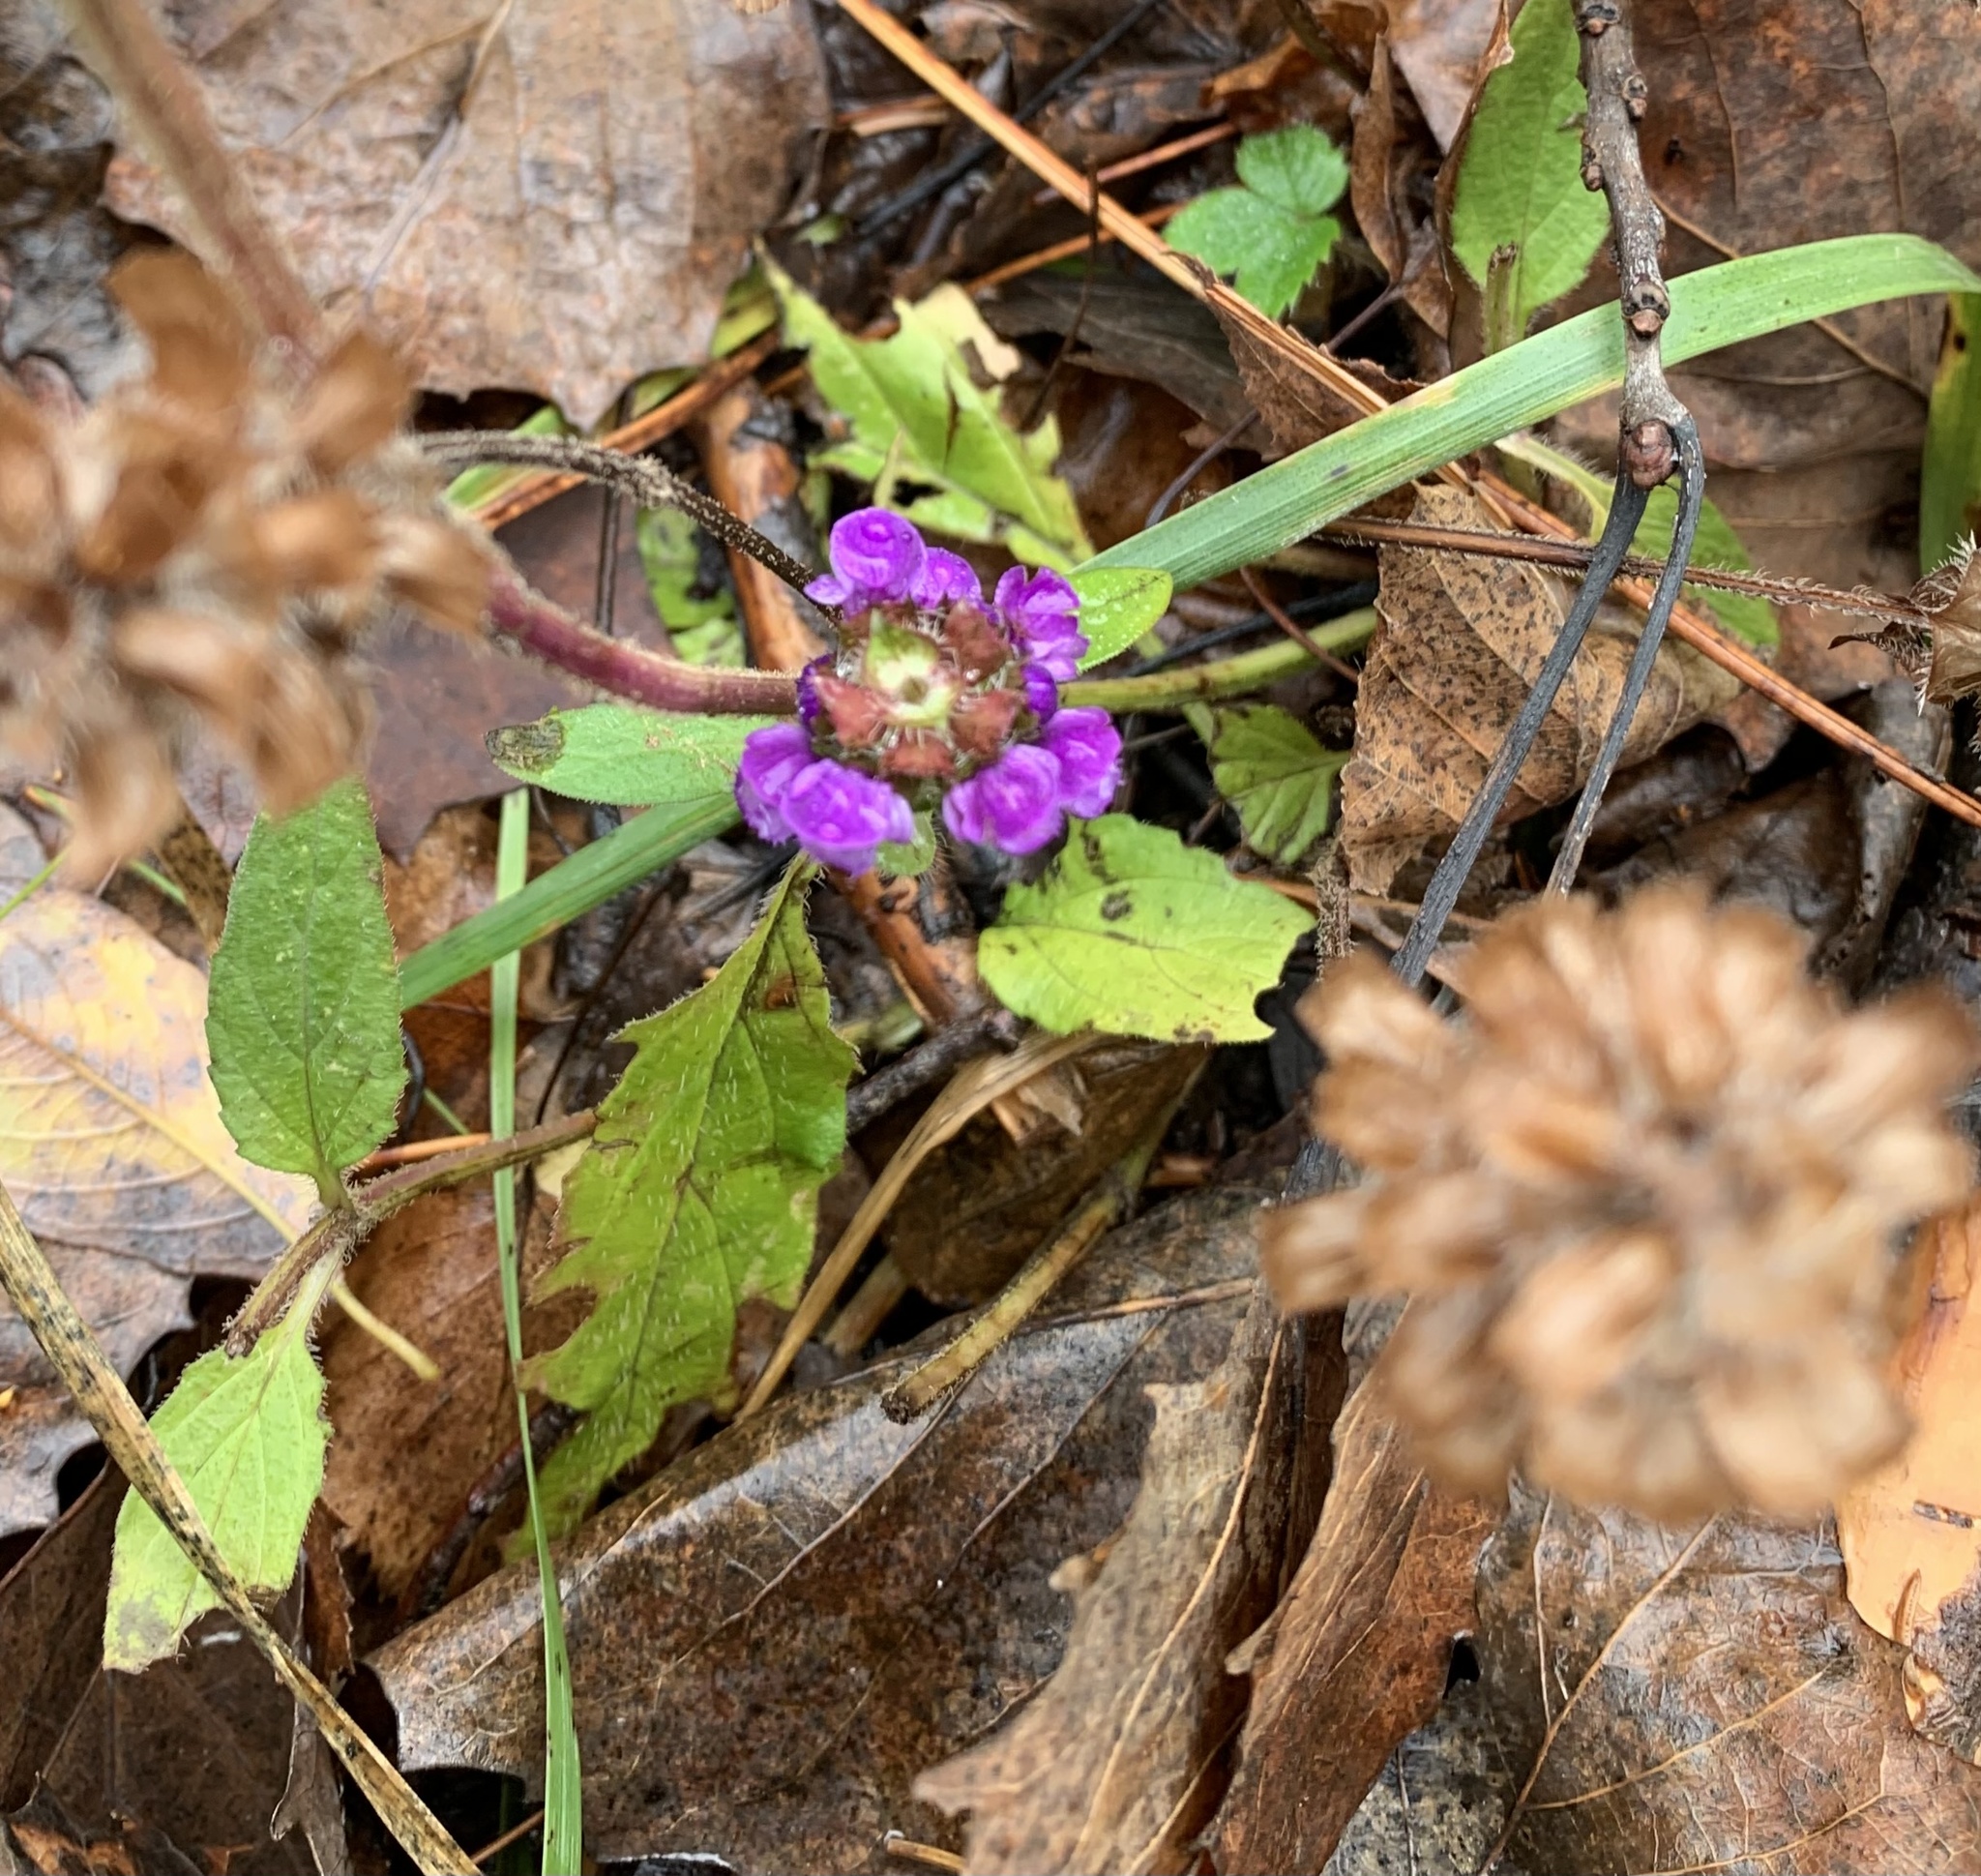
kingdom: Plantae
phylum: Tracheophyta
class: Magnoliopsida
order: Lamiales
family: Lamiaceae
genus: Prunella
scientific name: Prunella vulgaris
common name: Heal-all
